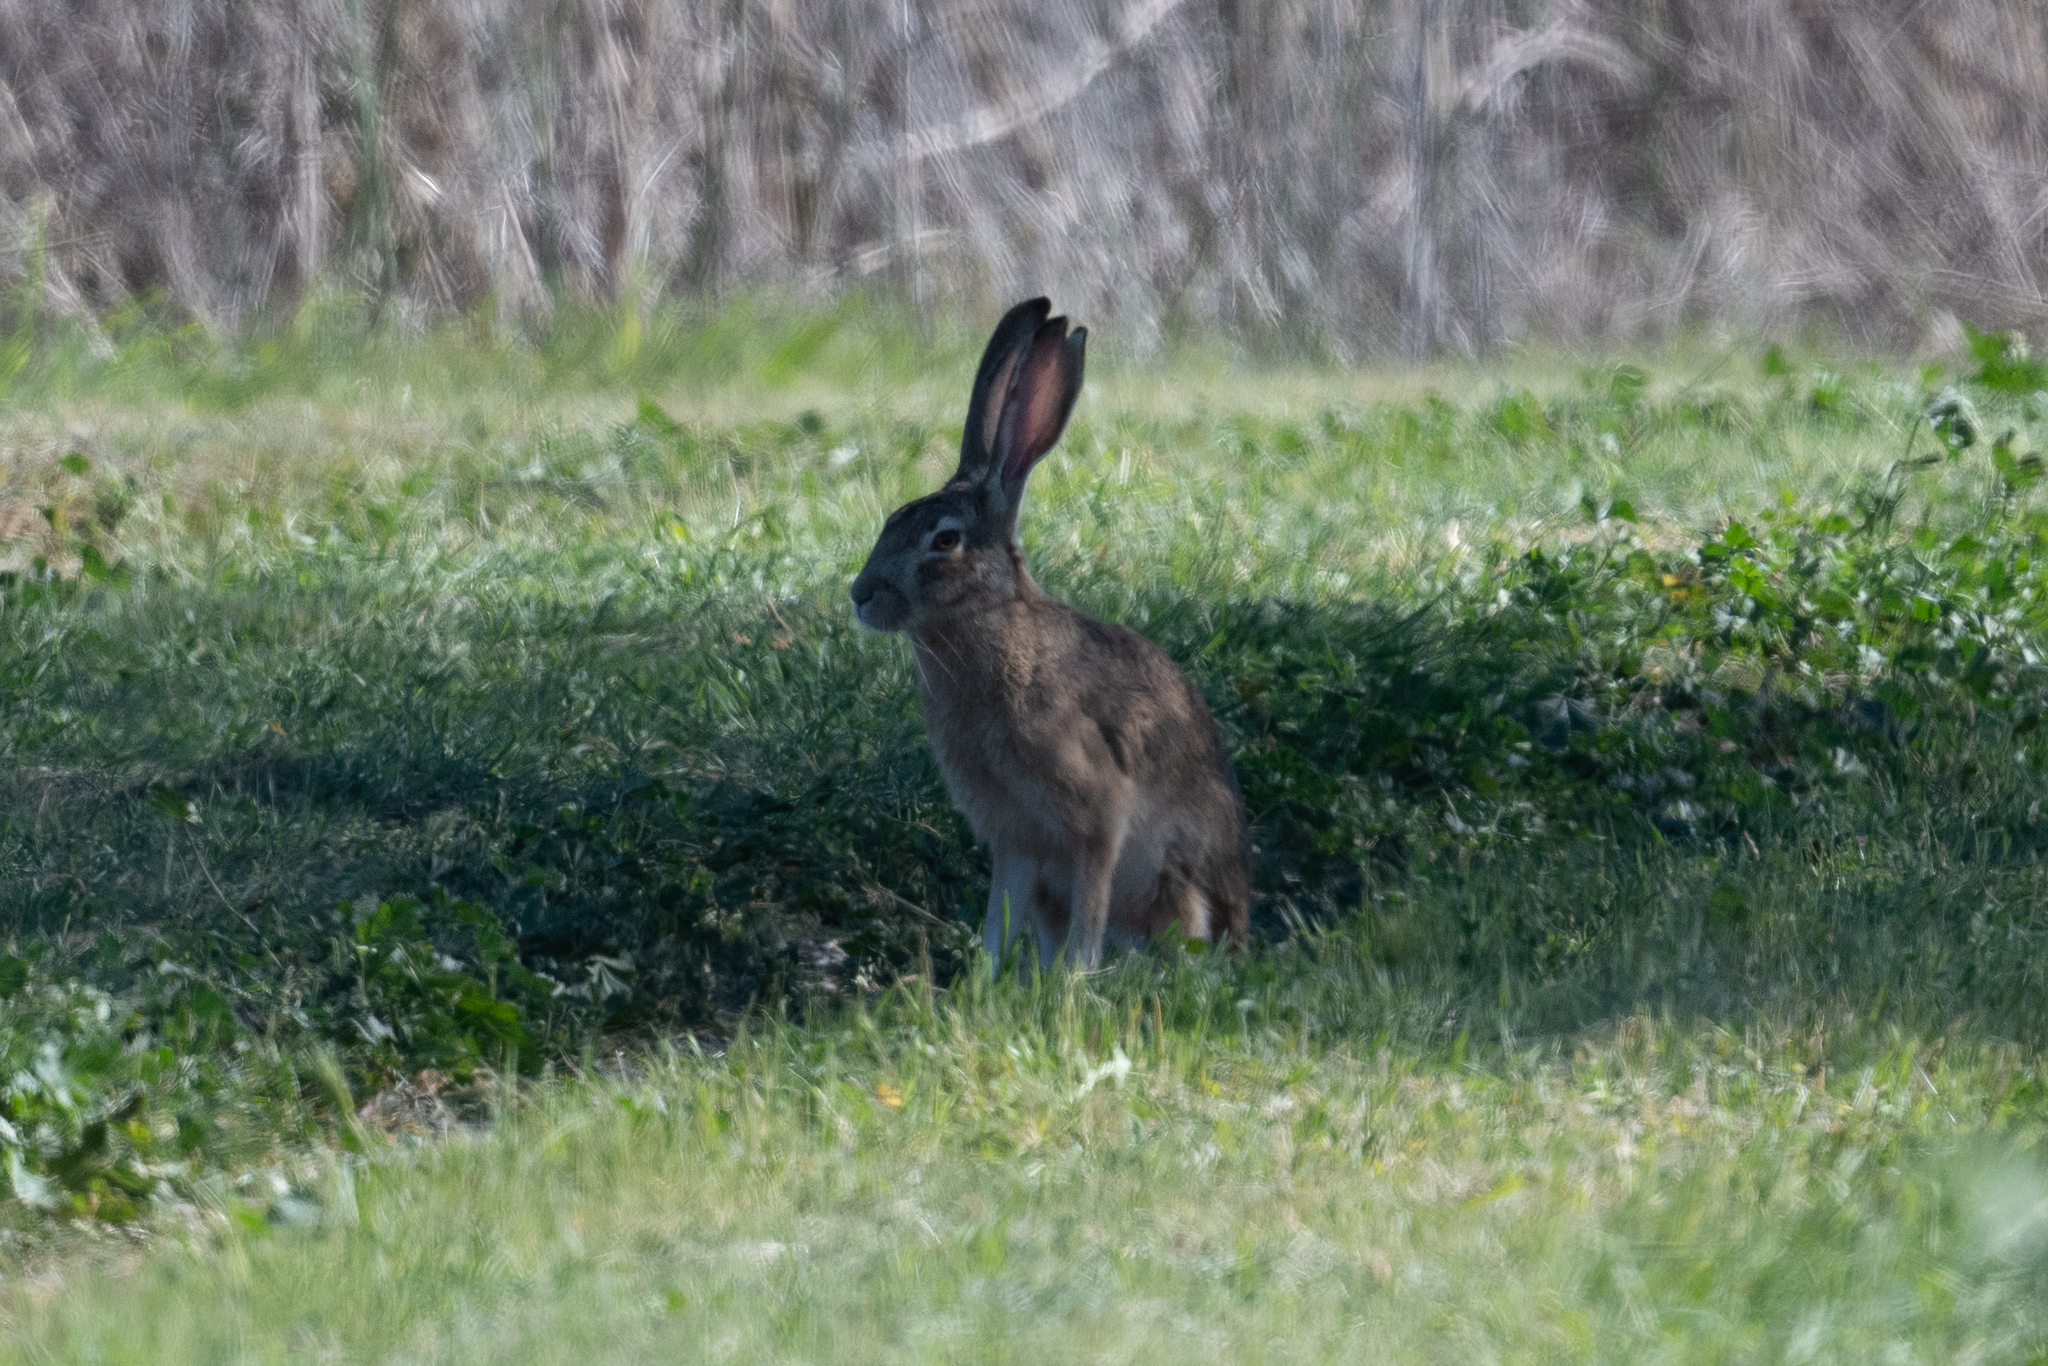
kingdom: Animalia
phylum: Chordata
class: Mammalia
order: Lagomorpha
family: Leporidae
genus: Lepus
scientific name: Lepus californicus
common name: Black-tailed jackrabbit
